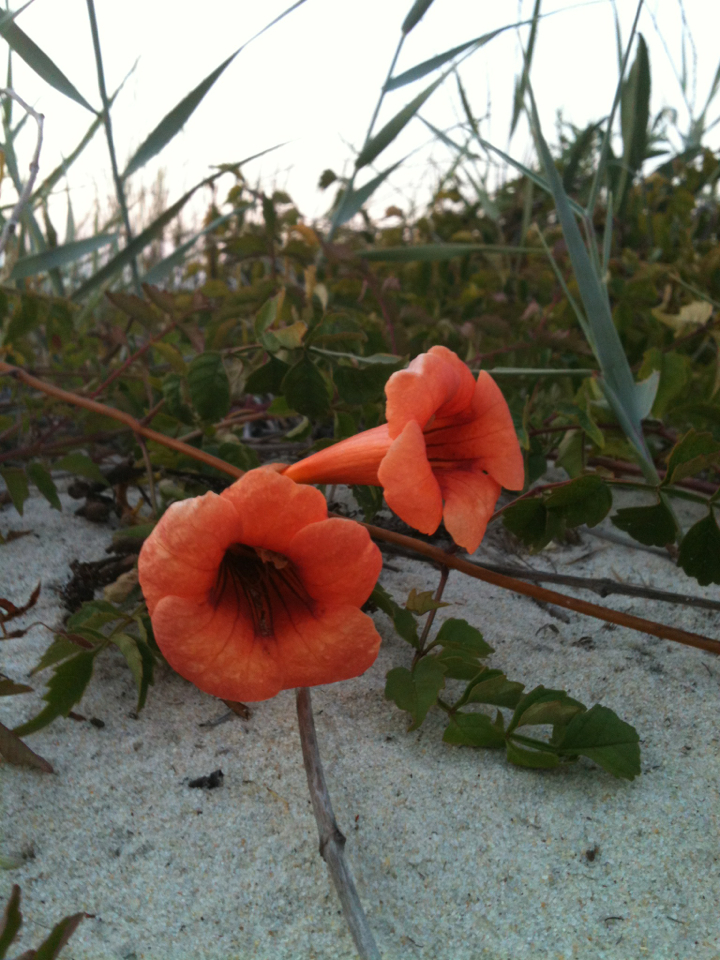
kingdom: Plantae
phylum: Tracheophyta
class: Magnoliopsida
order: Lamiales
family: Bignoniaceae
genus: Campsis
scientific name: Campsis radicans
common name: Trumpet-creeper
